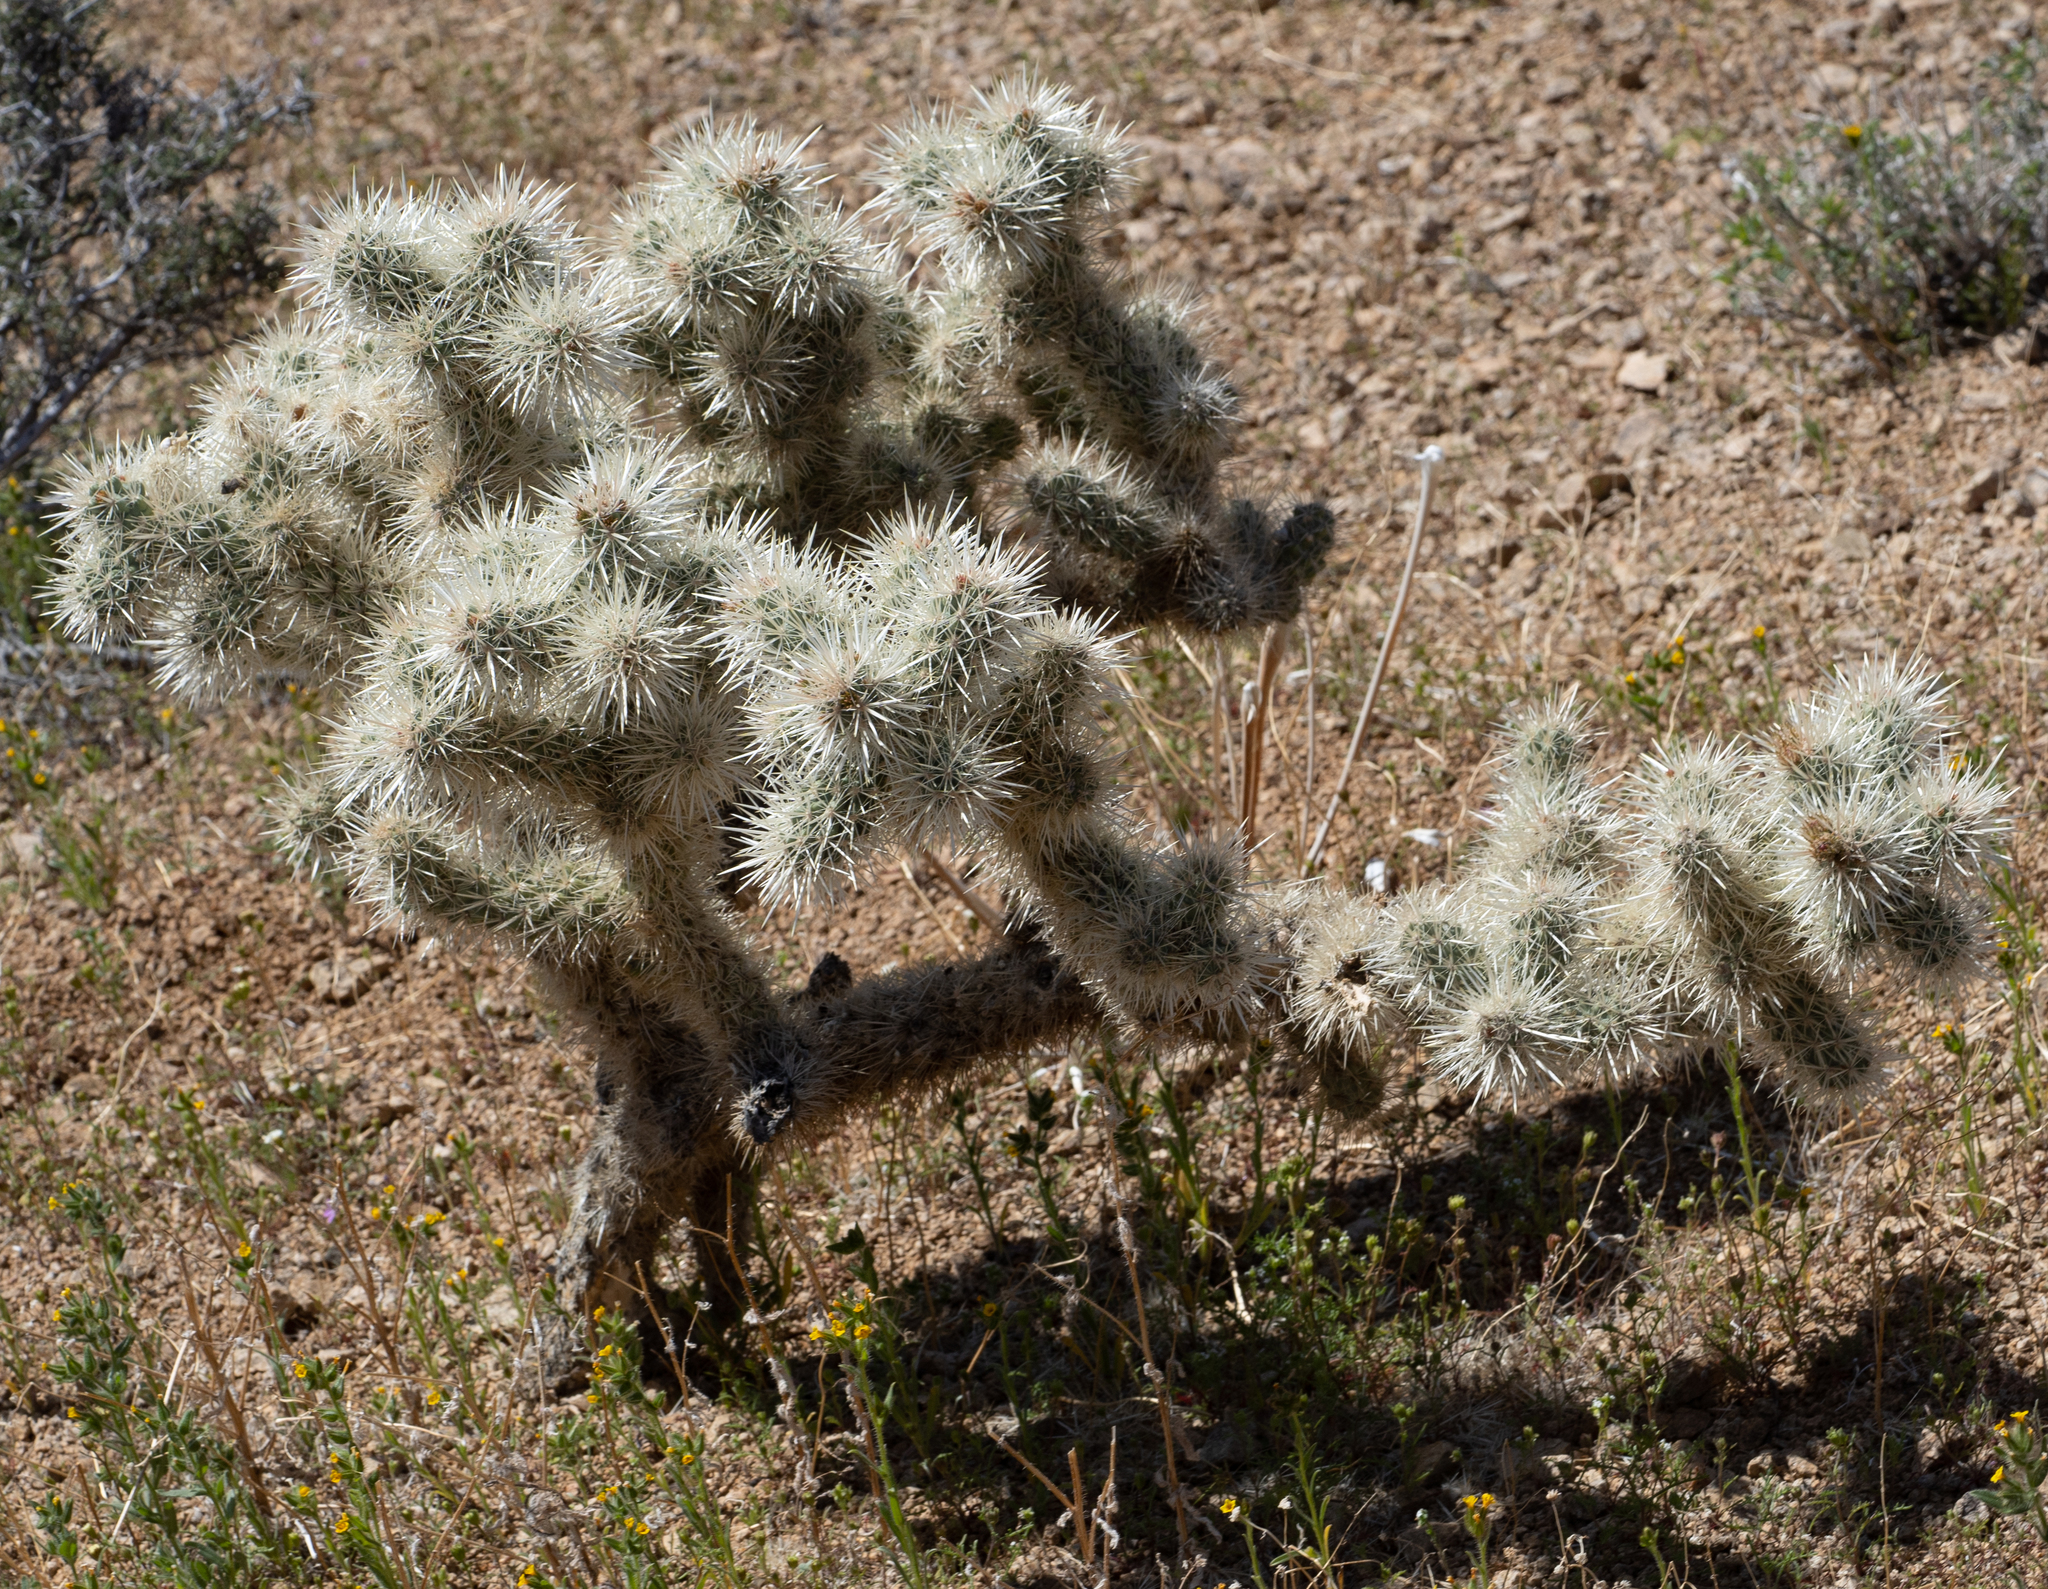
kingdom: Plantae
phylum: Tracheophyta
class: Magnoliopsida
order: Caryophyllales
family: Cactaceae
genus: Cylindropuntia
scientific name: Cylindropuntia echinocarpa
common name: Ground cholla
